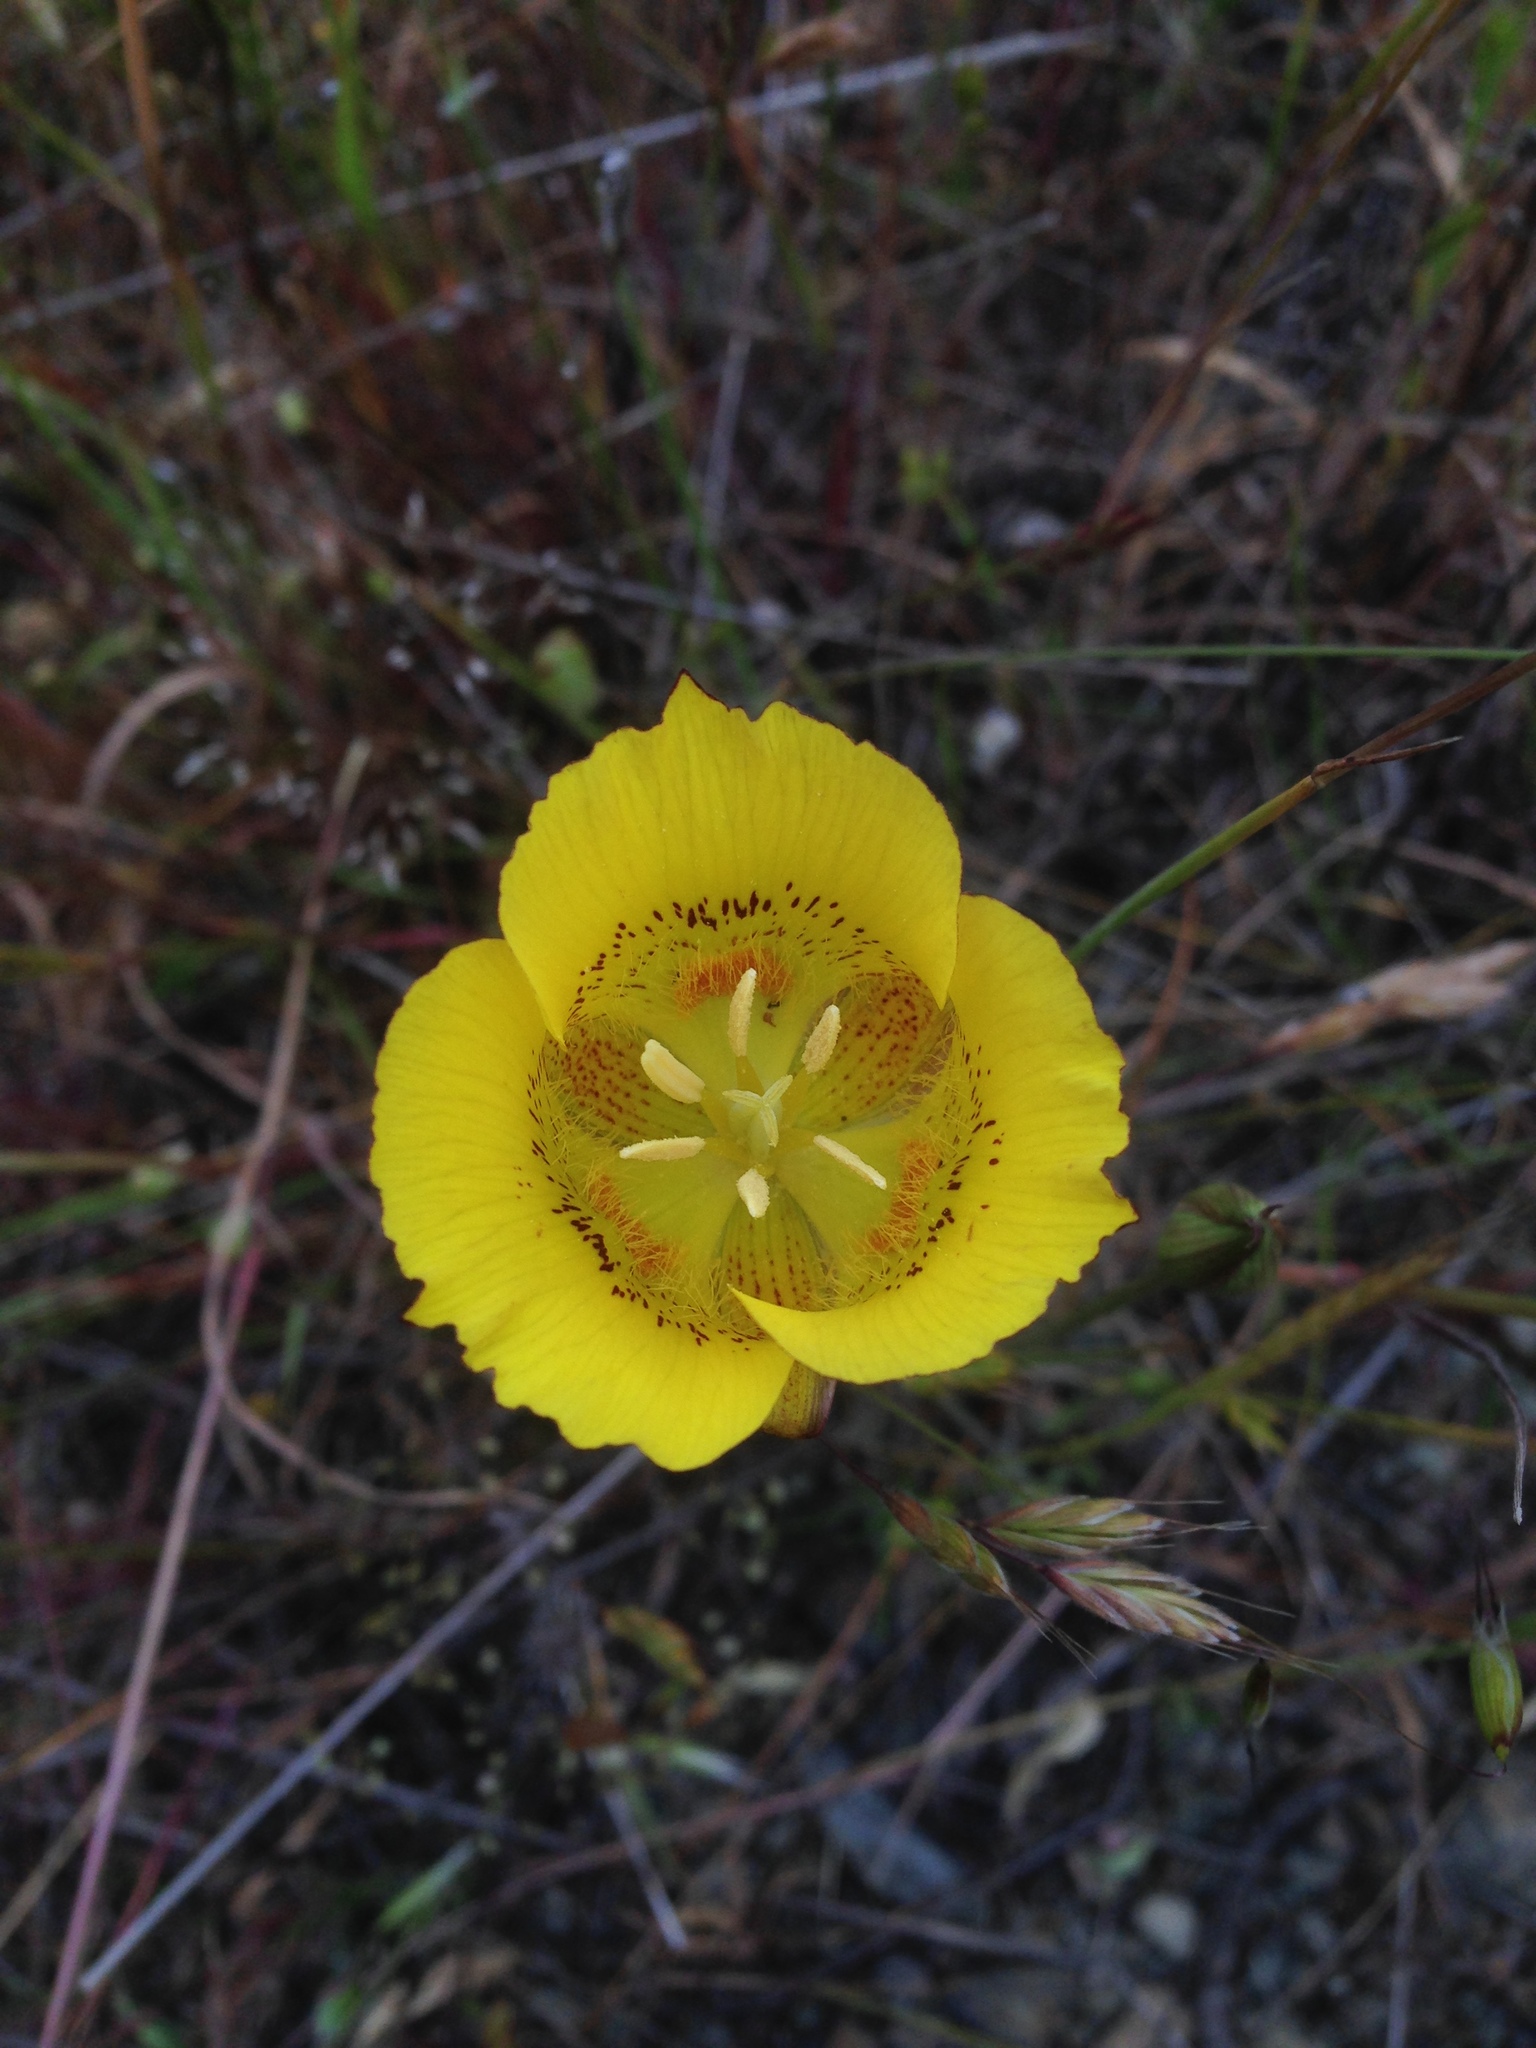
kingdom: Plantae
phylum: Tracheophyta
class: Liliopsida
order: Liliales
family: Liliaceae
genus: Calochortus
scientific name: Calochortus luteus
